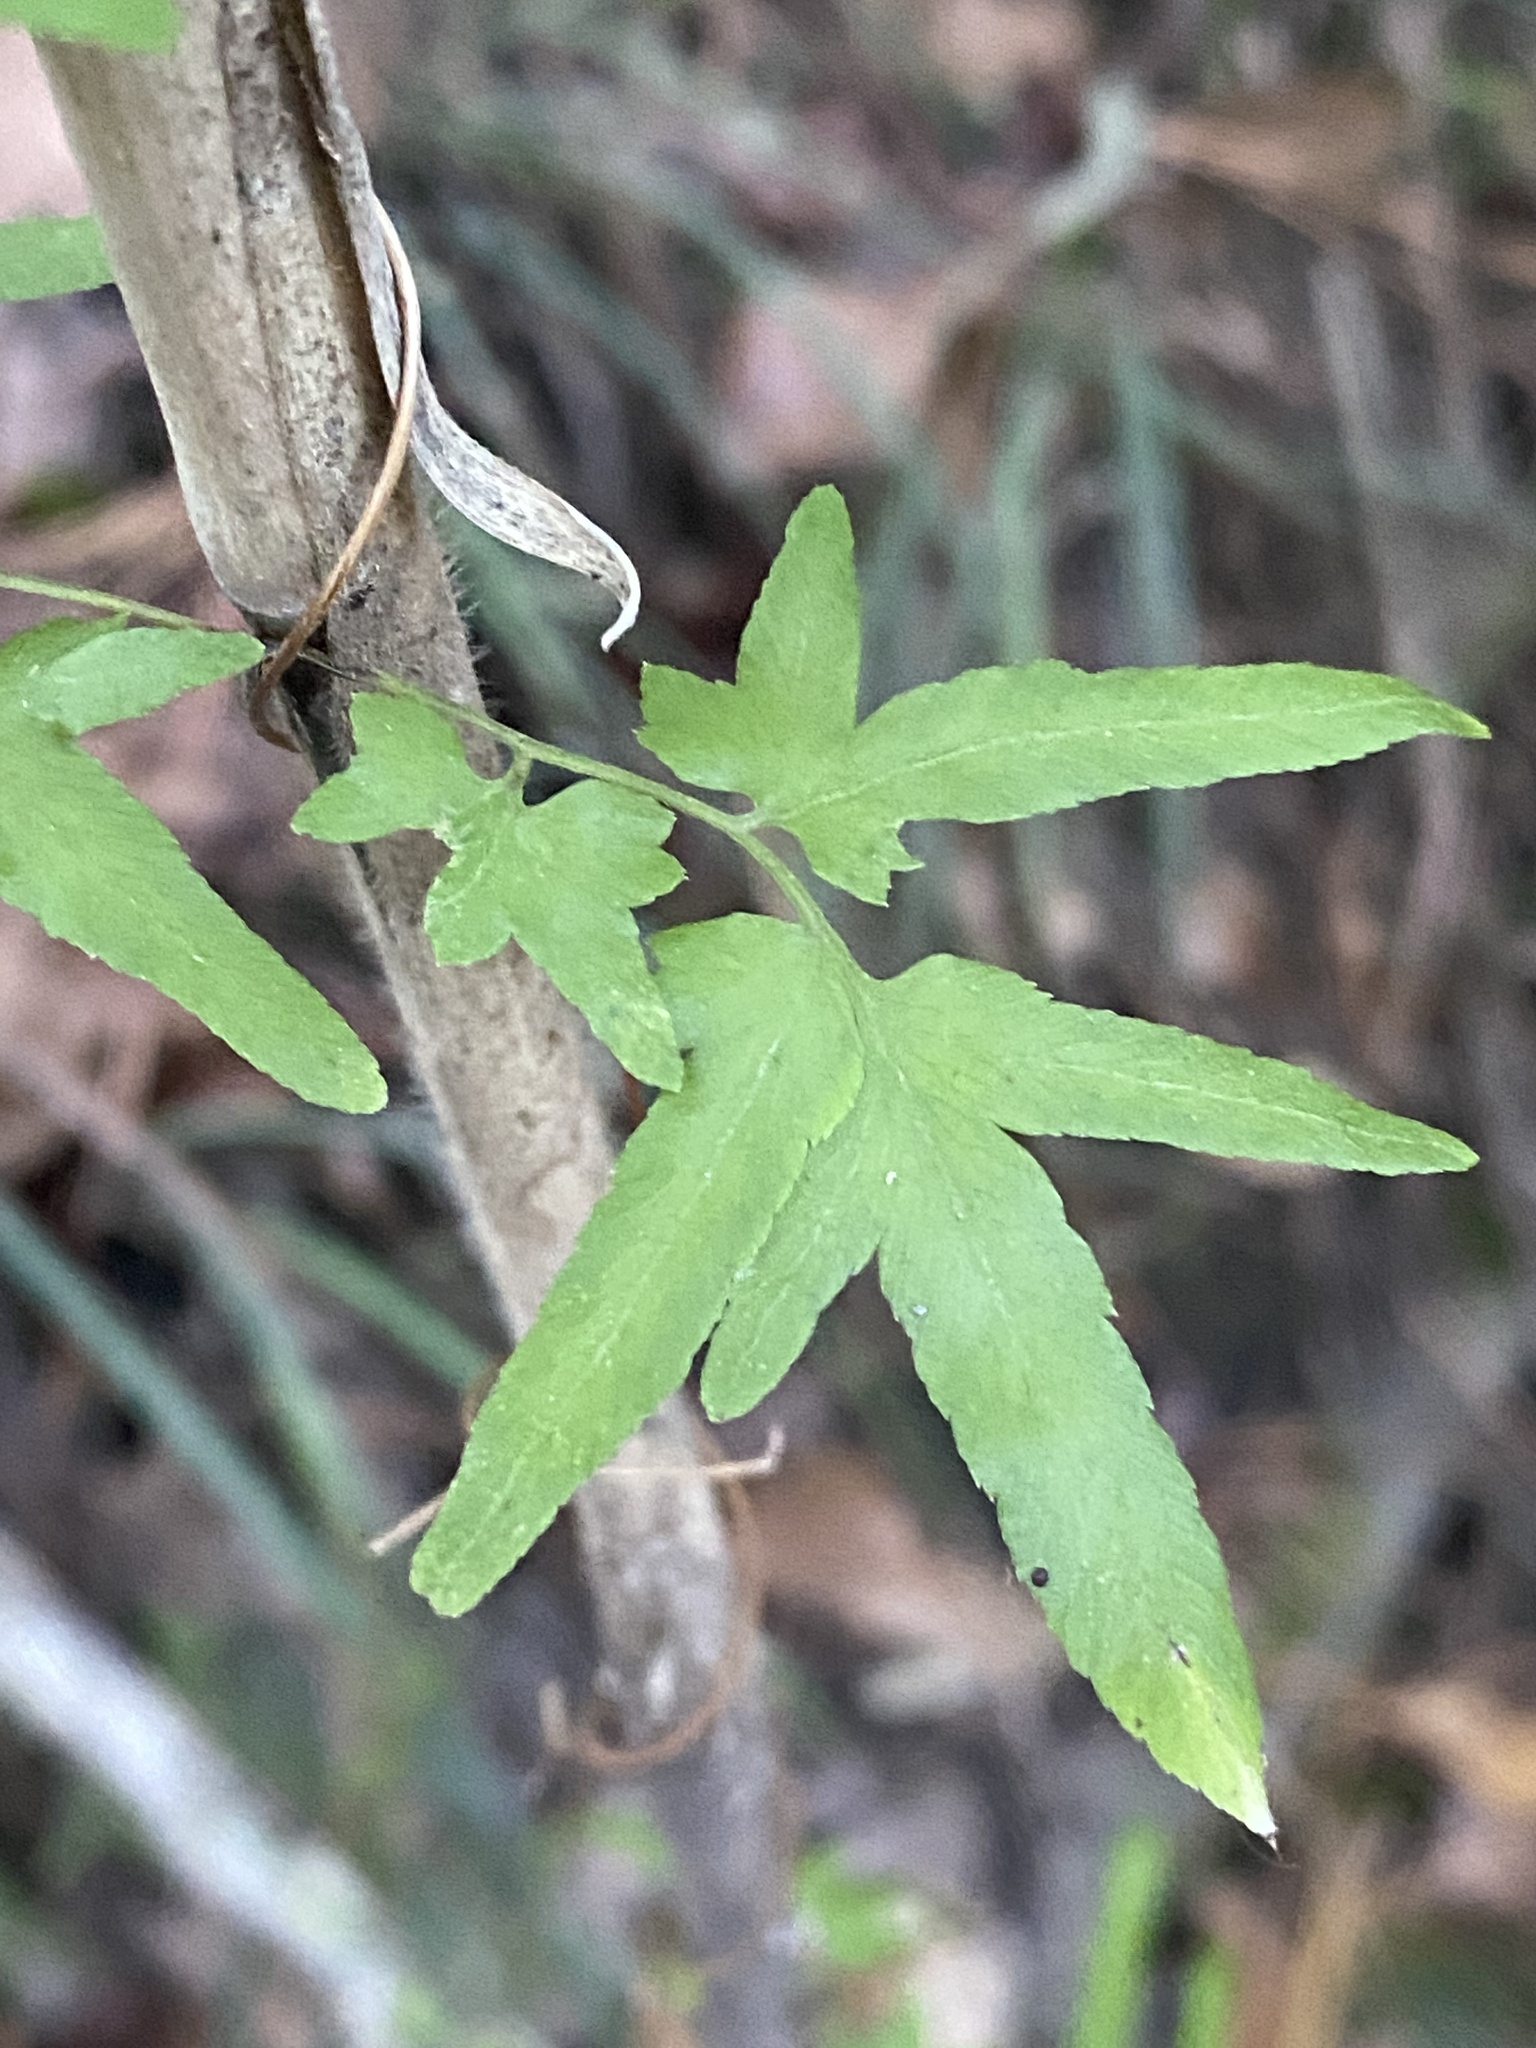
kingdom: Plantae
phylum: Tracheophyta
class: Polypodiopsida
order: Schizaeales
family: Lygodiaceae
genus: Lygodium
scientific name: Lygodium japonicum
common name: Japanese climbing fern
